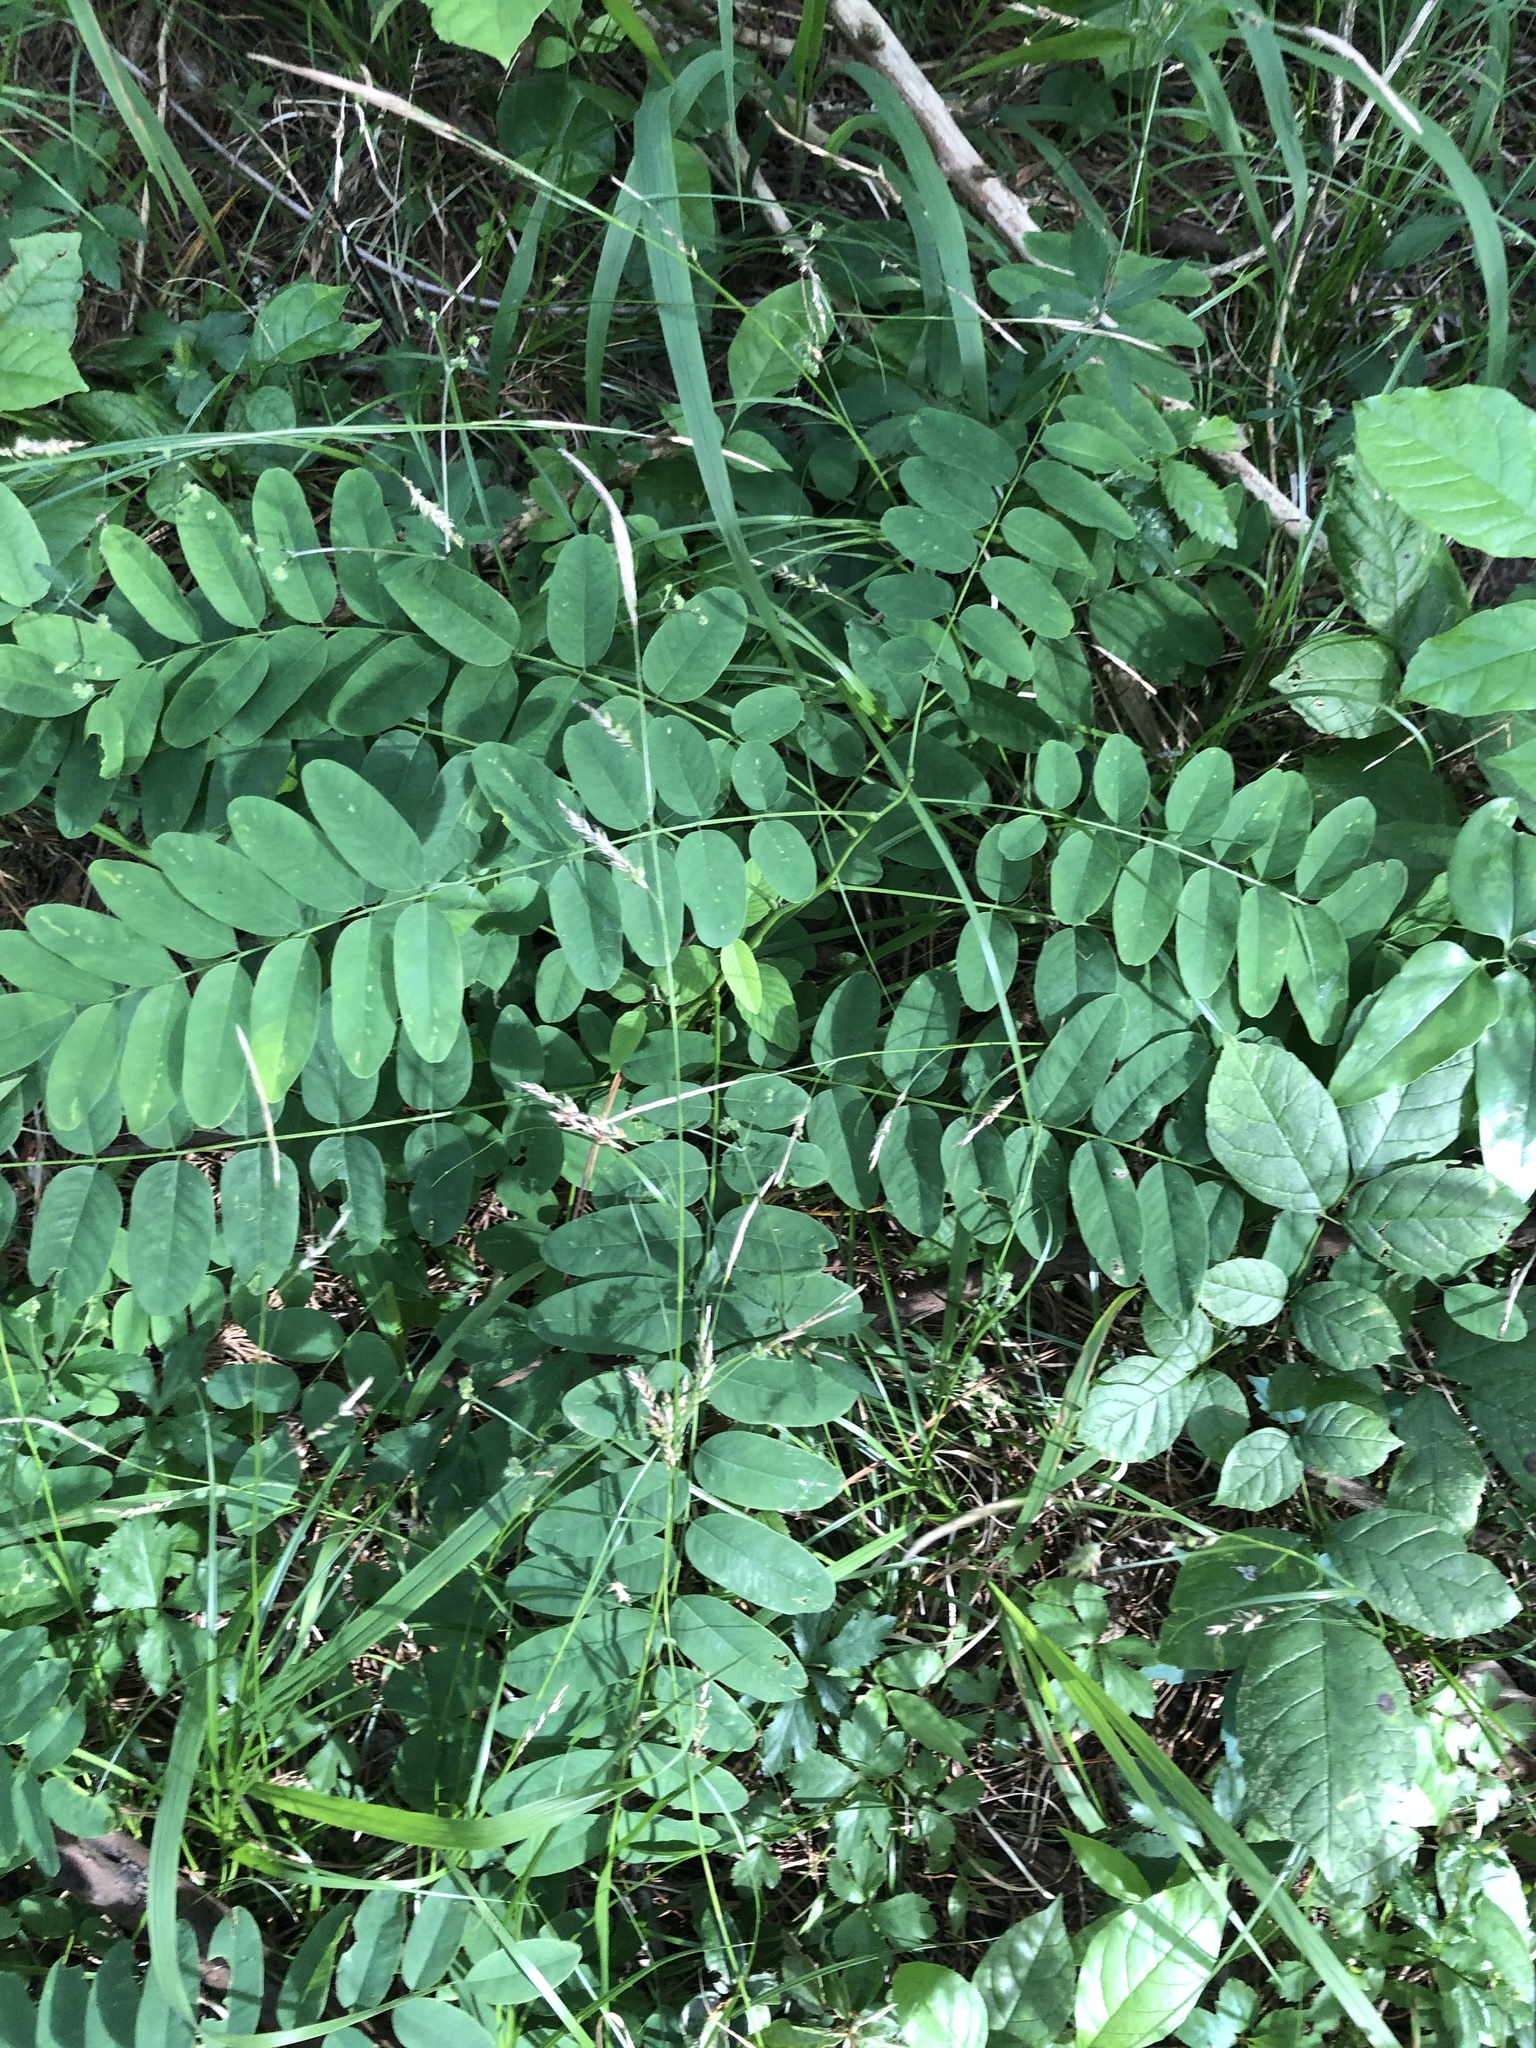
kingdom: Plantae
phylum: Tracheophyta
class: Magnoliopsida
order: Fabales
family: Fabaceae
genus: Amorpha
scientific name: Amorpha fruticosa
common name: False indigo
